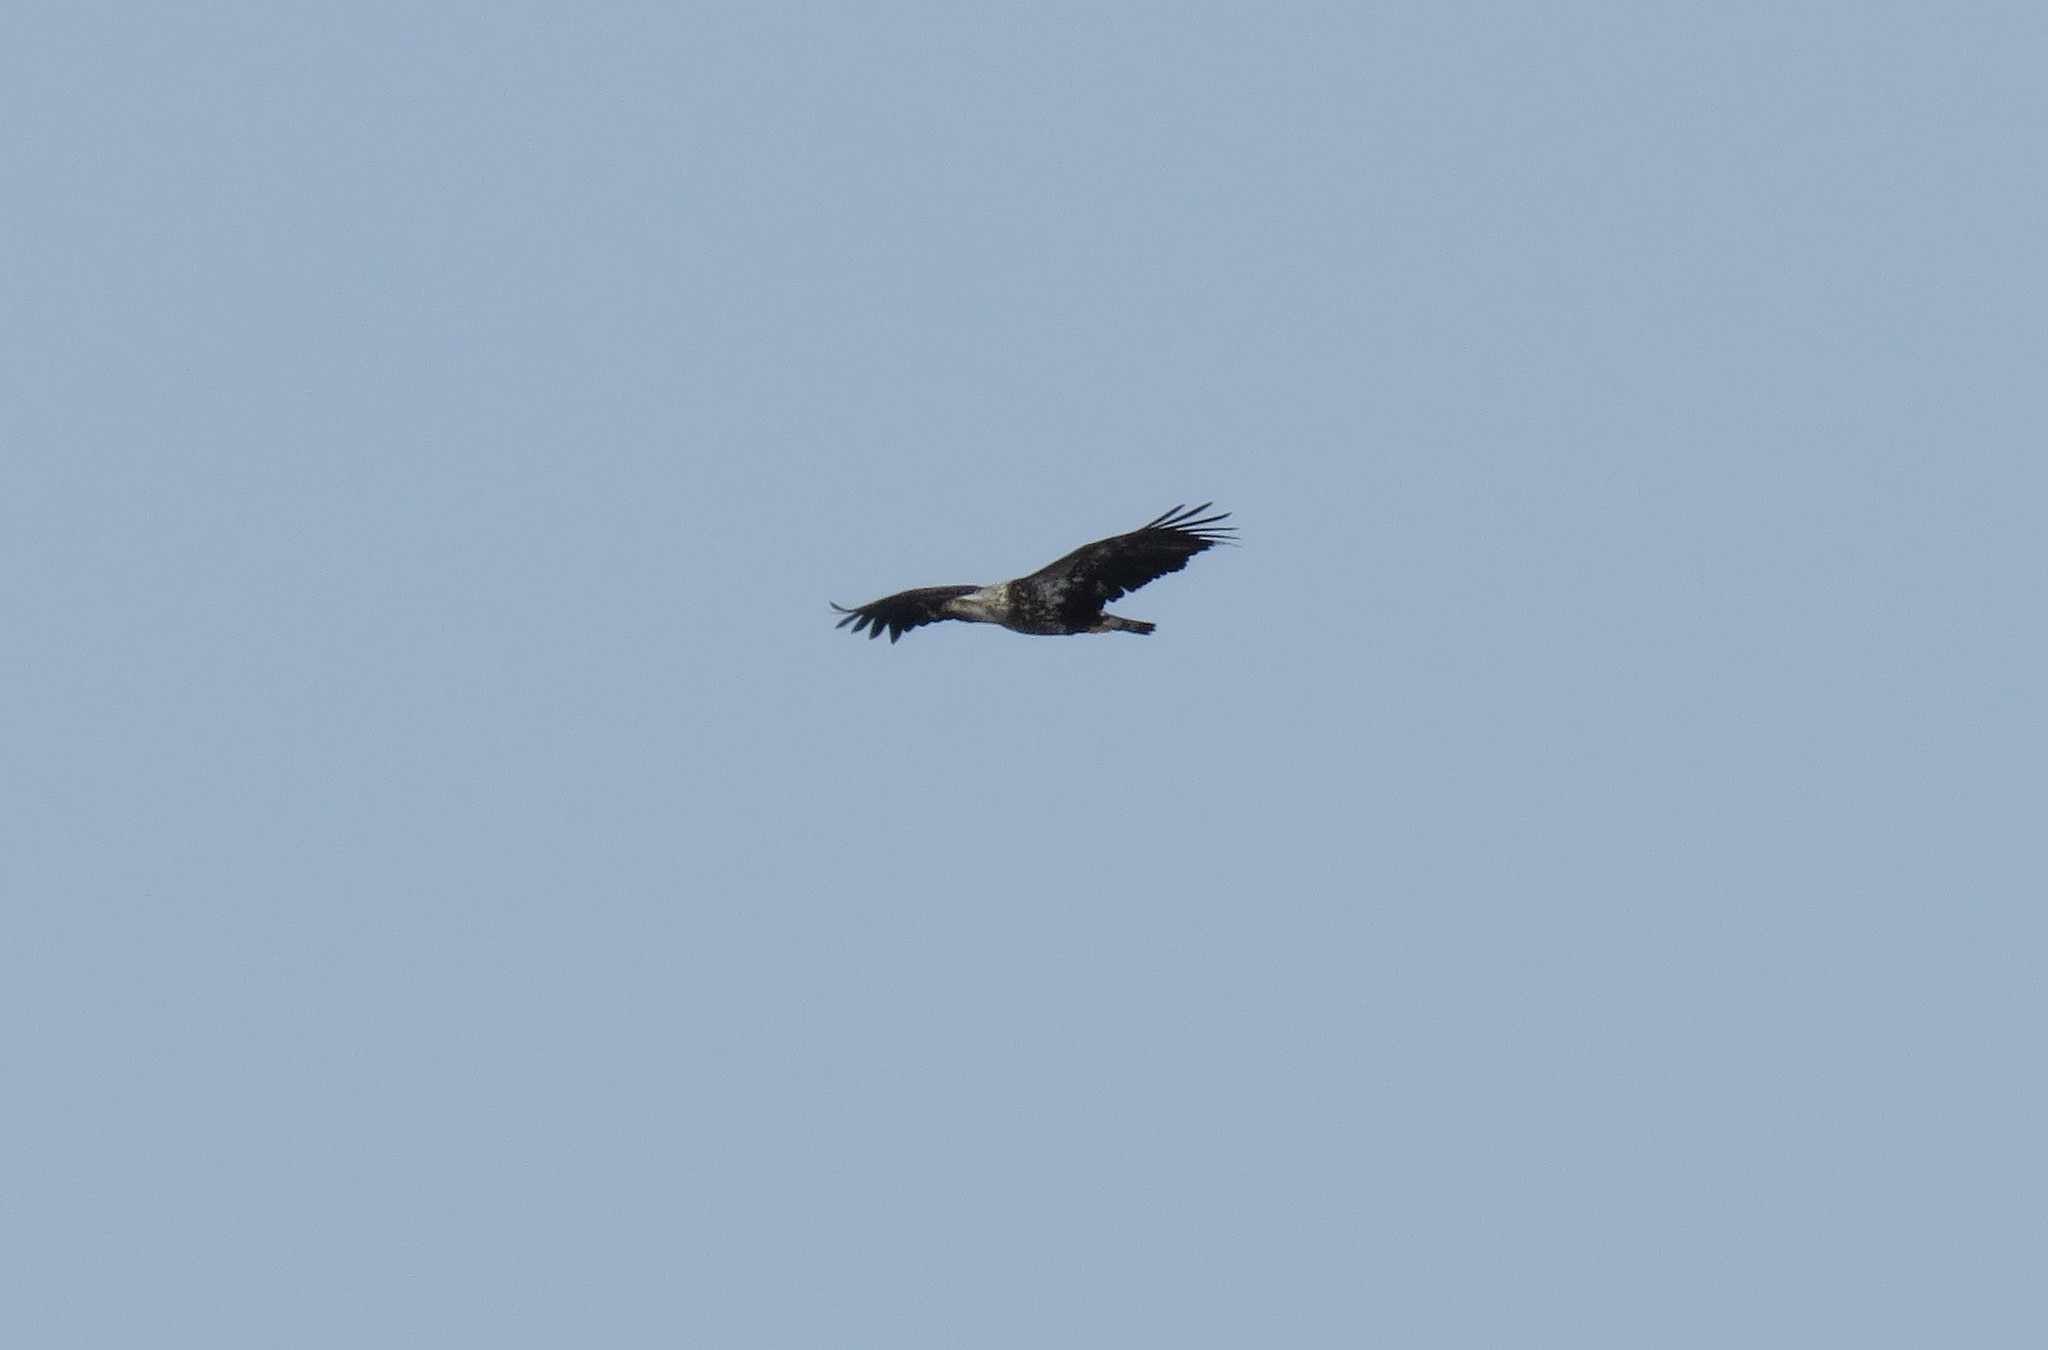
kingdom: Animalia
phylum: Chordata
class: Aves
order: Accipitriformes
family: Accipitridae
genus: Haliaeetus
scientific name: Haliaeetus leucocephalus
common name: Bald eagle
